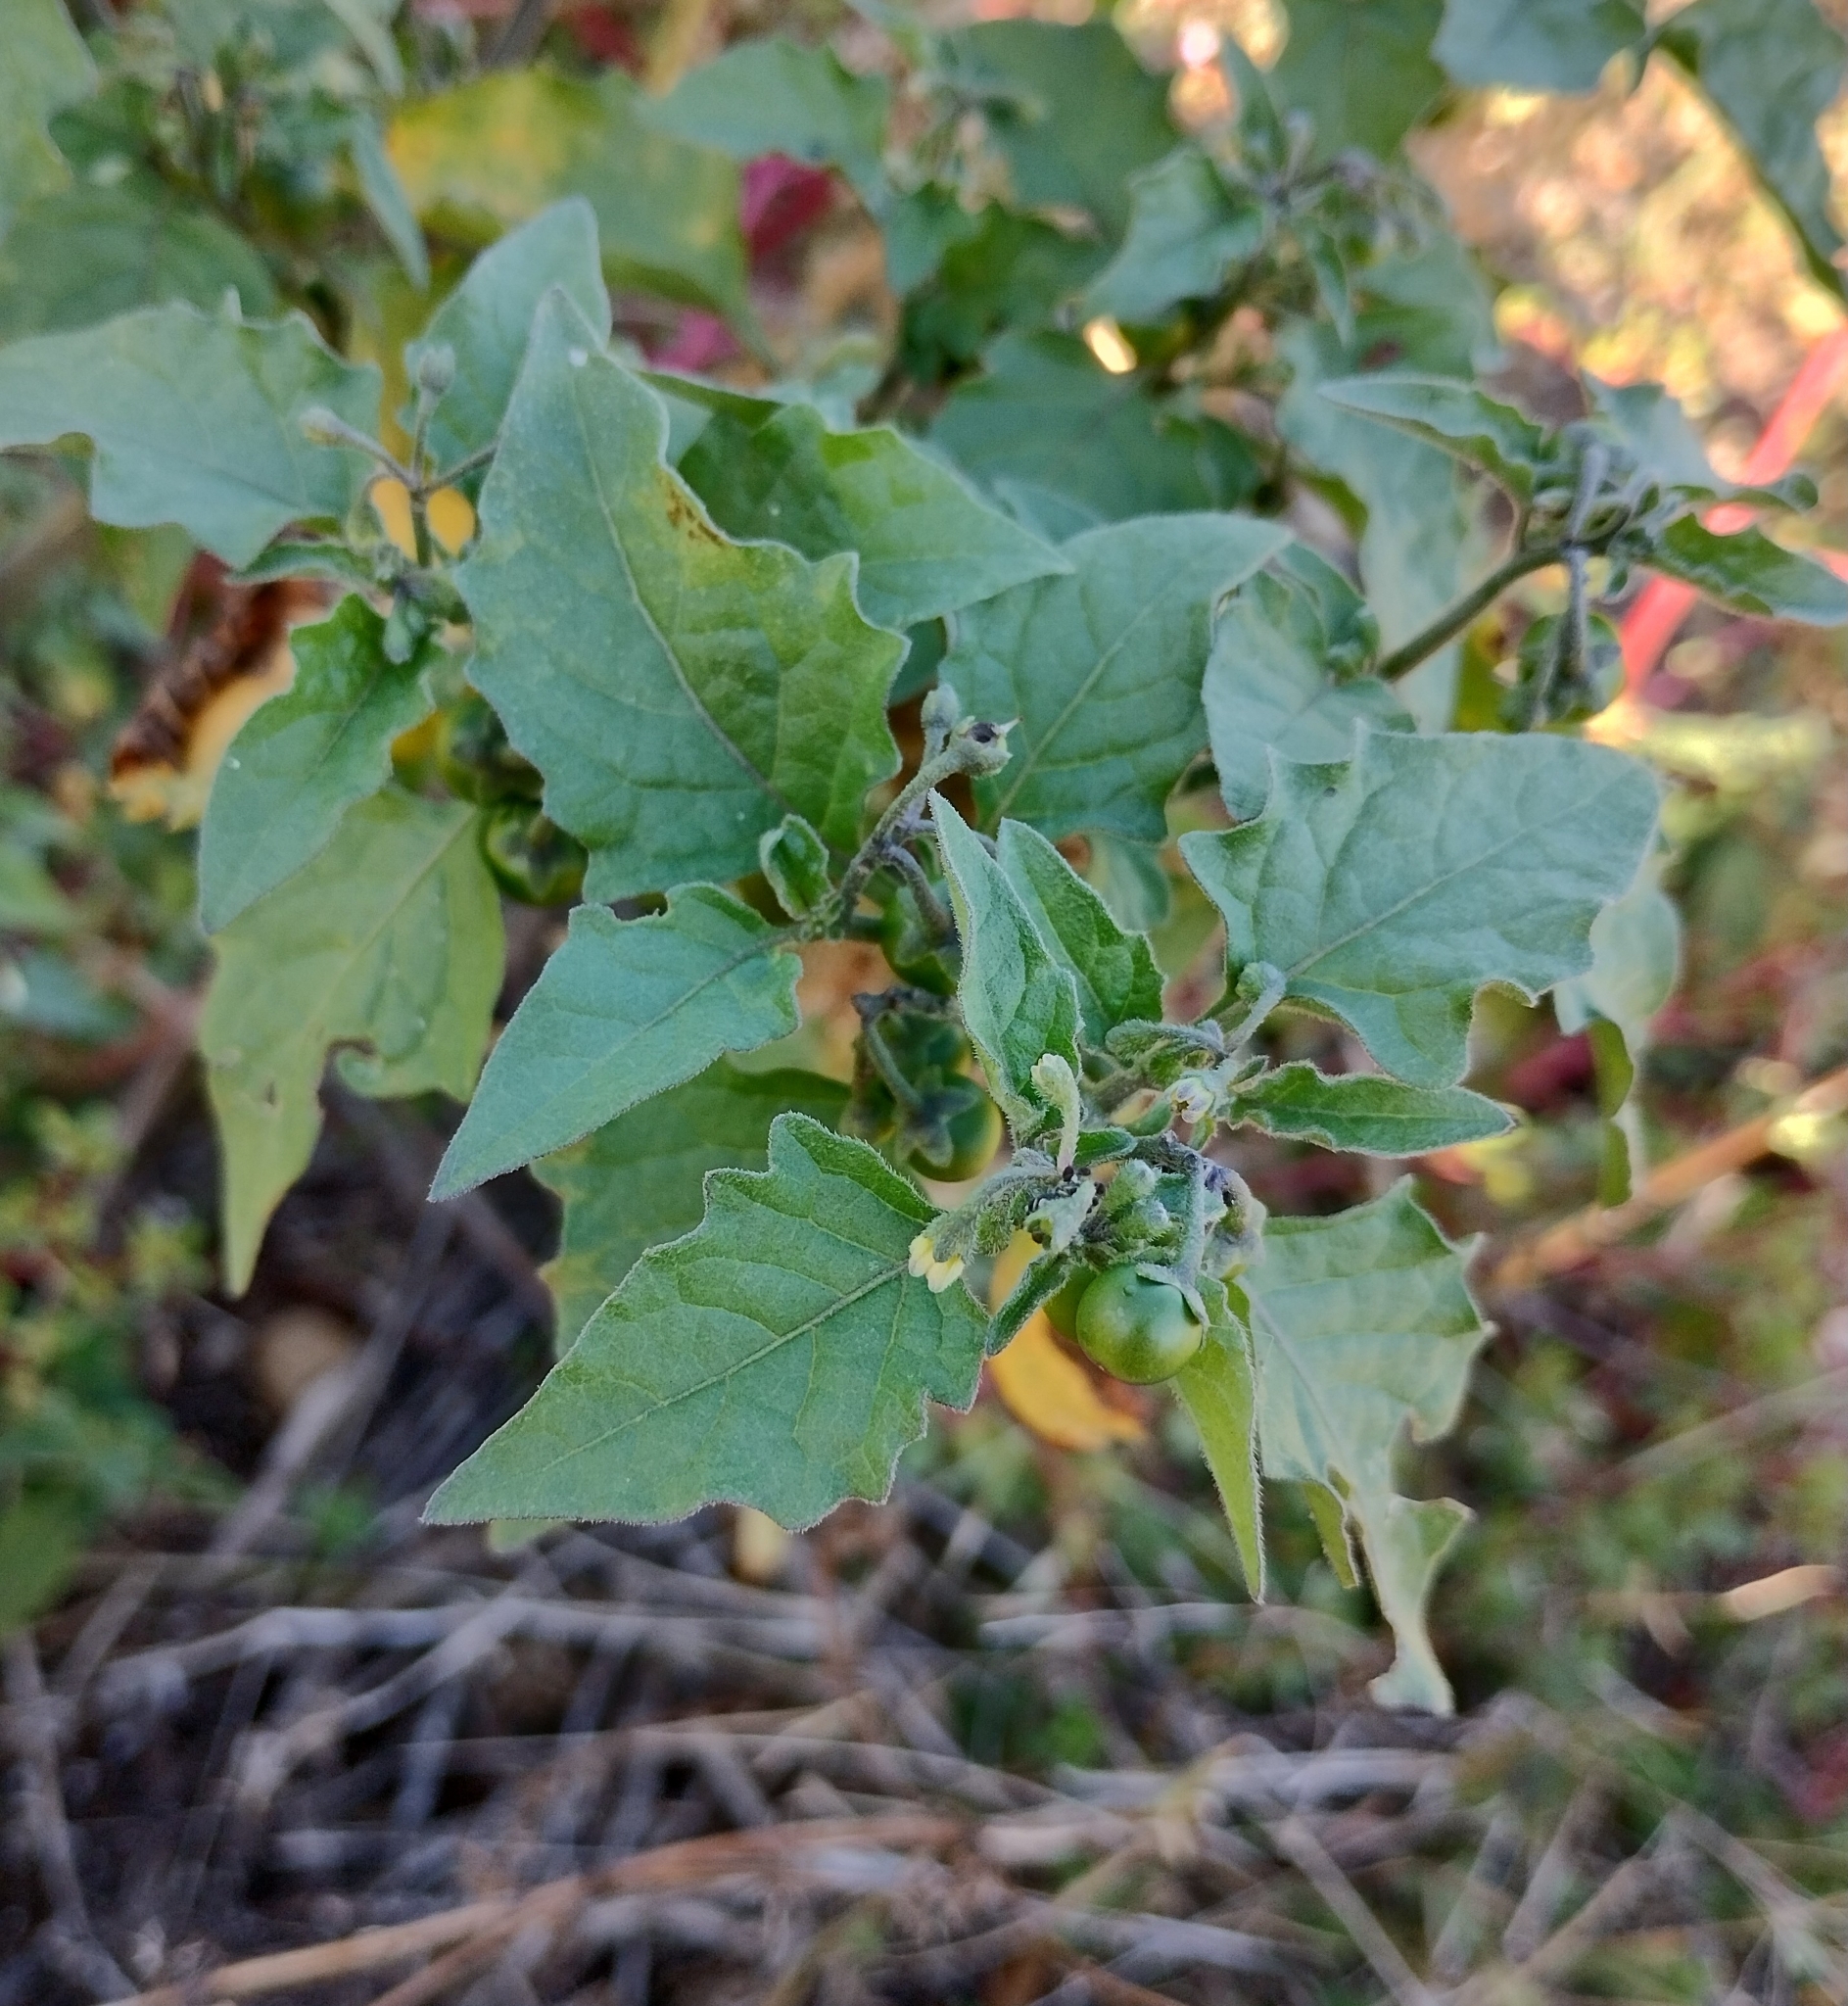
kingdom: Plantae
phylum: Tracheophyta
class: Magnoliopsida
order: Solanales
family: Solanaceae
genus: Solanum
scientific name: Solanum nigrum
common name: Black nightshade
